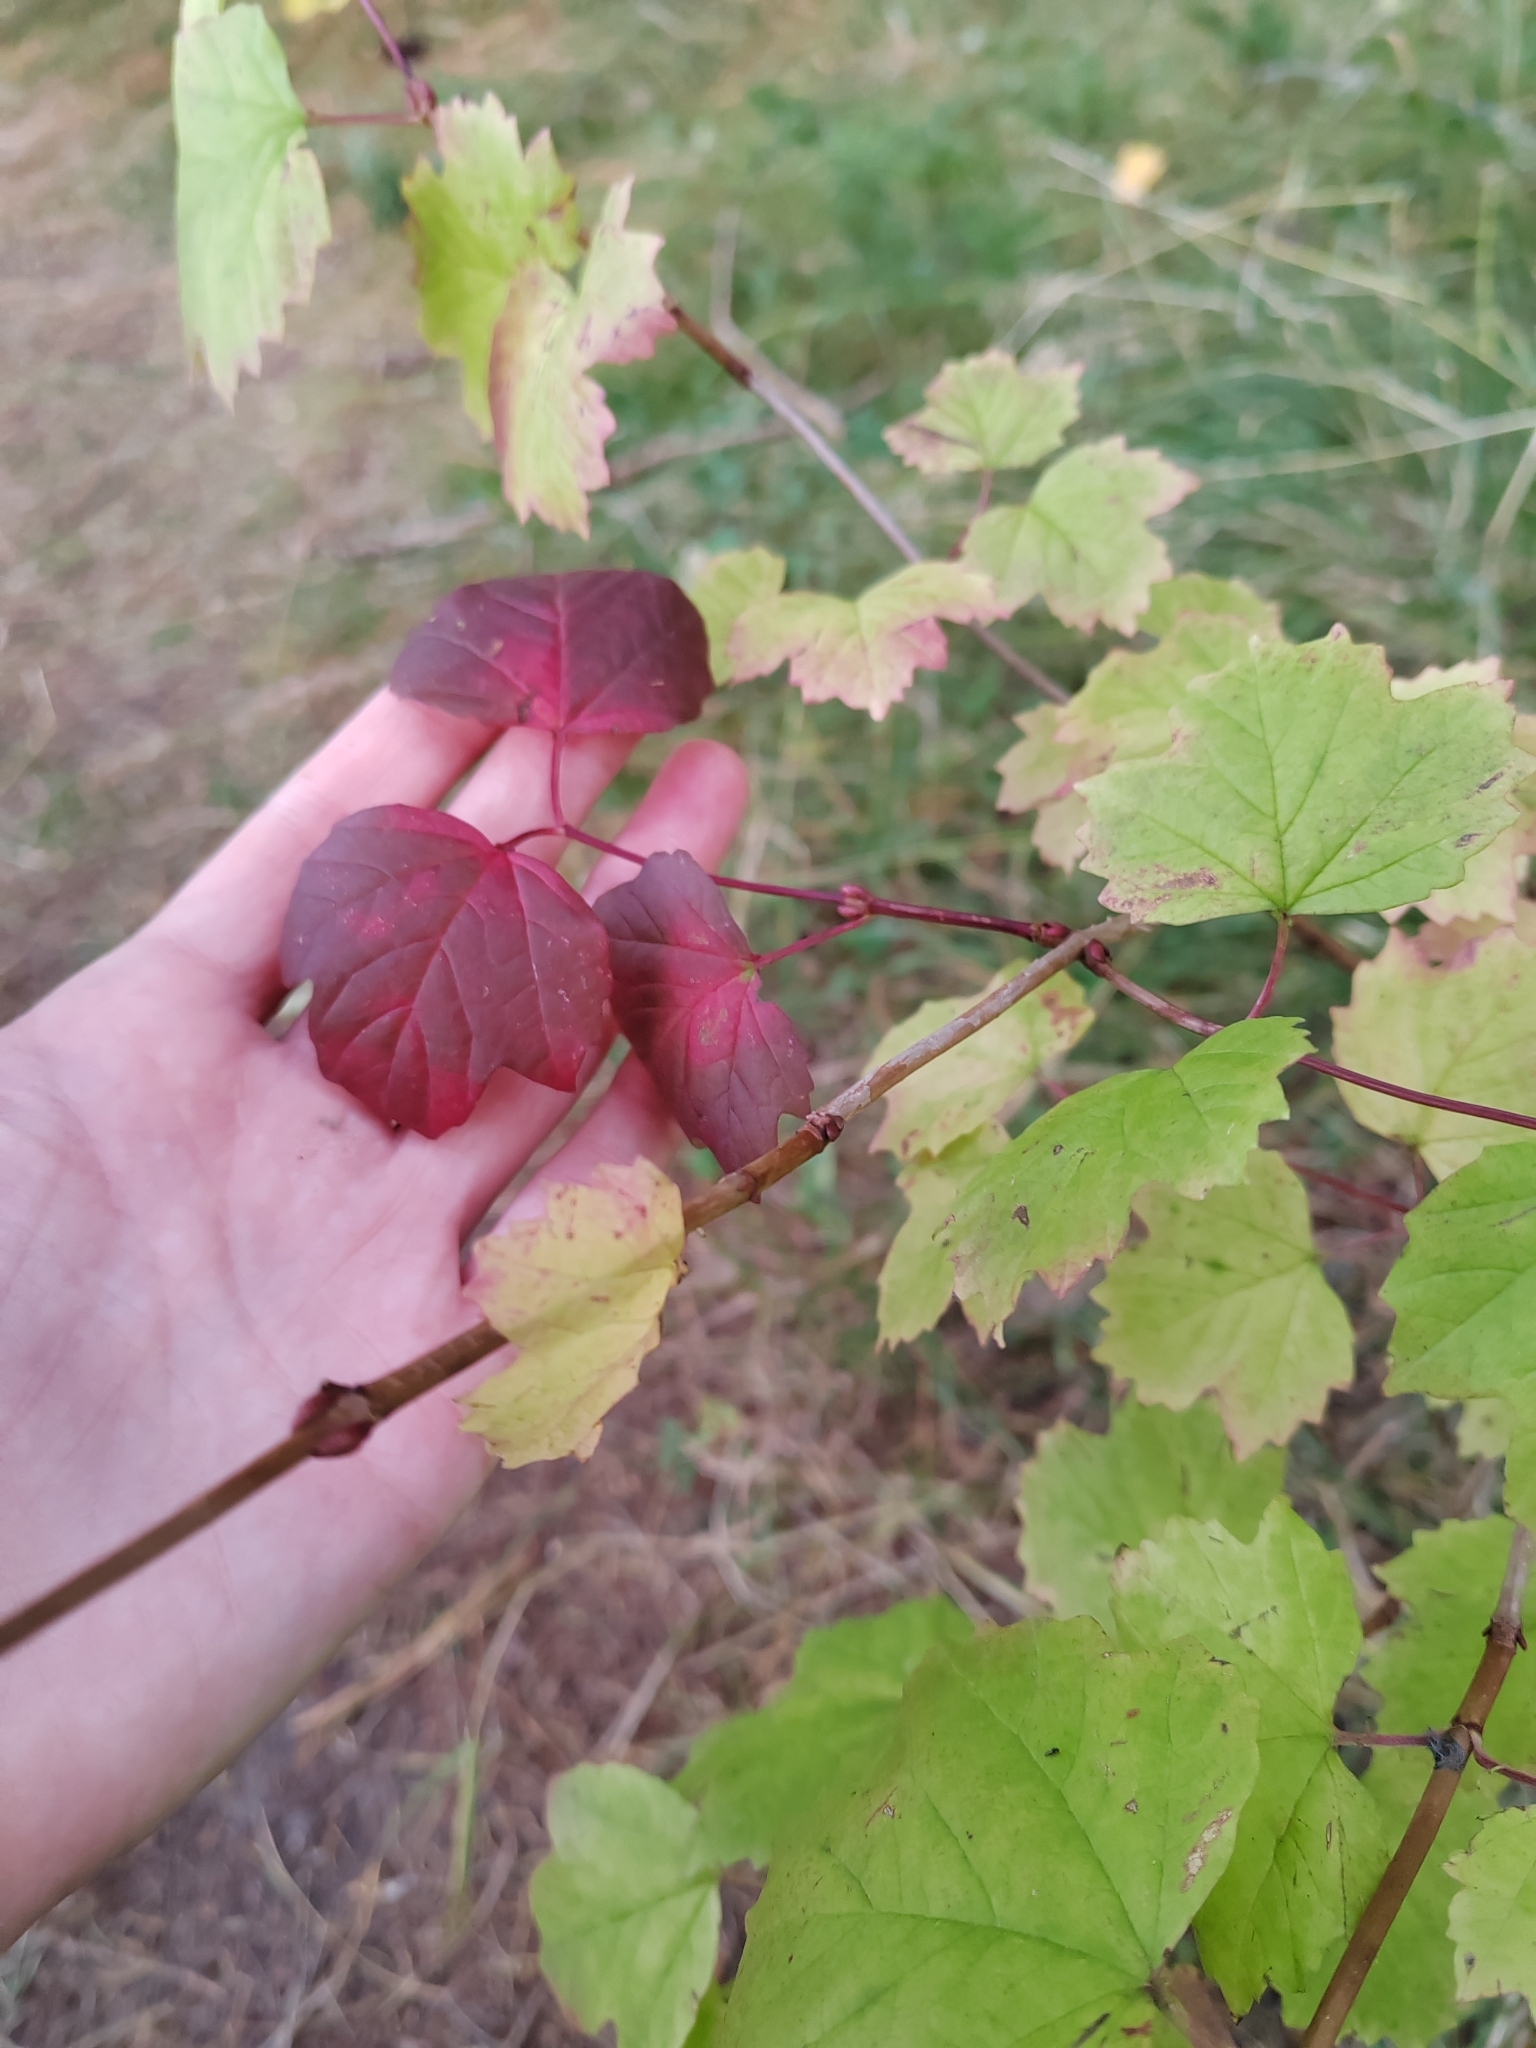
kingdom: Plantae
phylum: Tracheophyta
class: Magnoliopsida
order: Dipsacales
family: Viburnaceae
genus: Viburnum
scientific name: Viburnum opulus
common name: Guelder-rose
